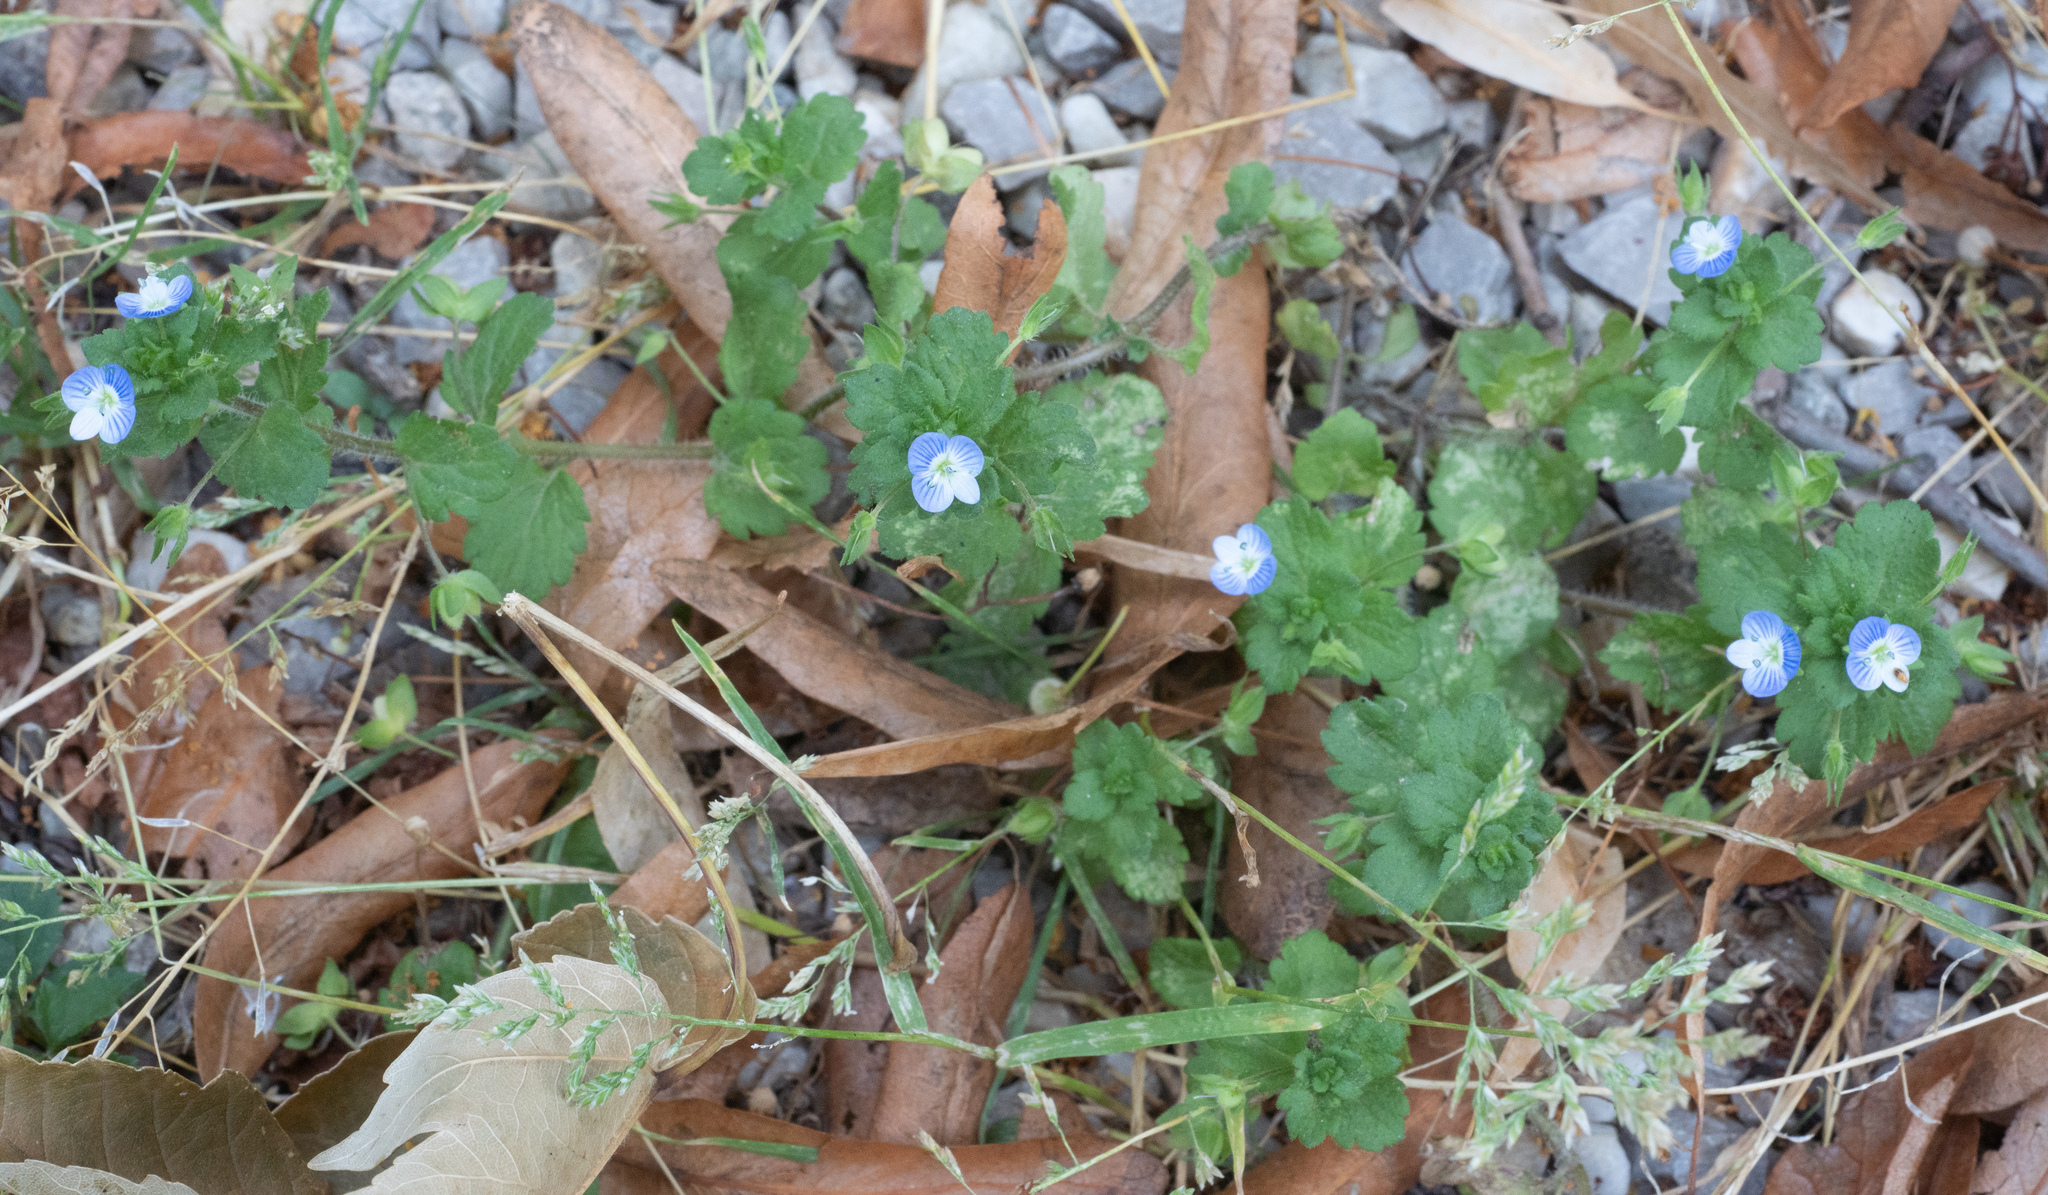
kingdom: Plantae
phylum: Tracheophyta
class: Magnoliopsida
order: Lamiales
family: Plantaginaceae
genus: Veronica
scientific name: Veronica persica
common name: Common field-speedwell
